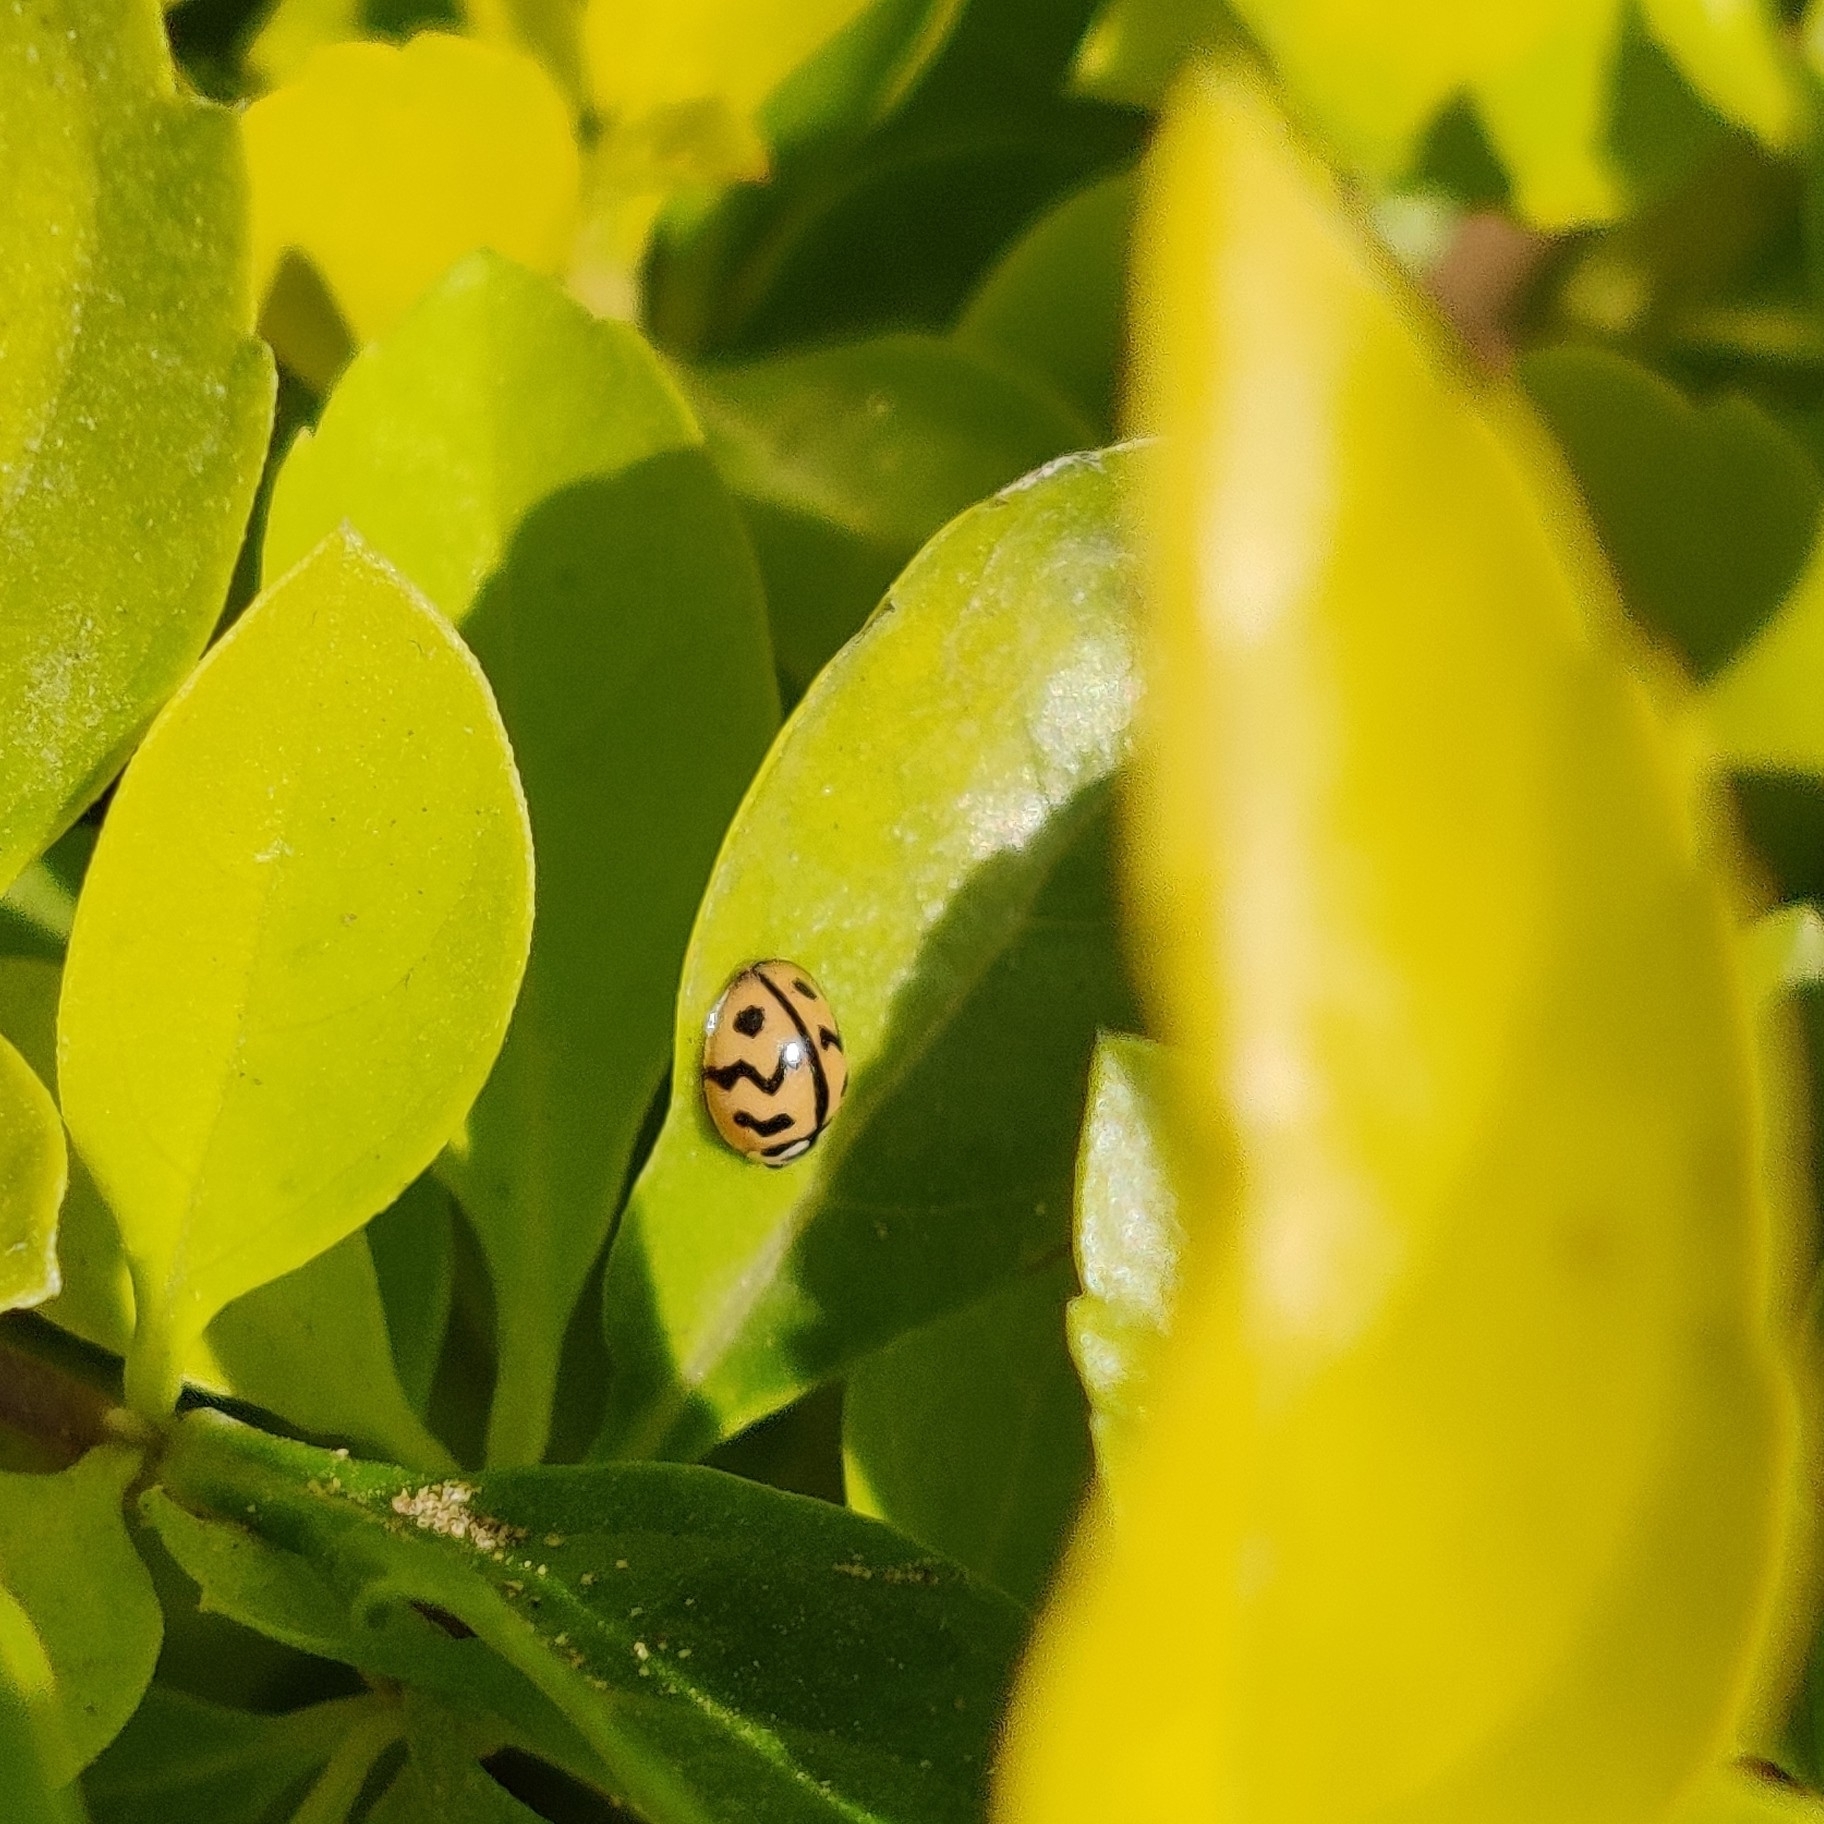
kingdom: Animalia
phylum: Arthropoda
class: Insecta
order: Coleoptera
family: Coccinellidae
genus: Cheilomenes
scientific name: Cheilomenes sexmaculata
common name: Ladybird beetle
